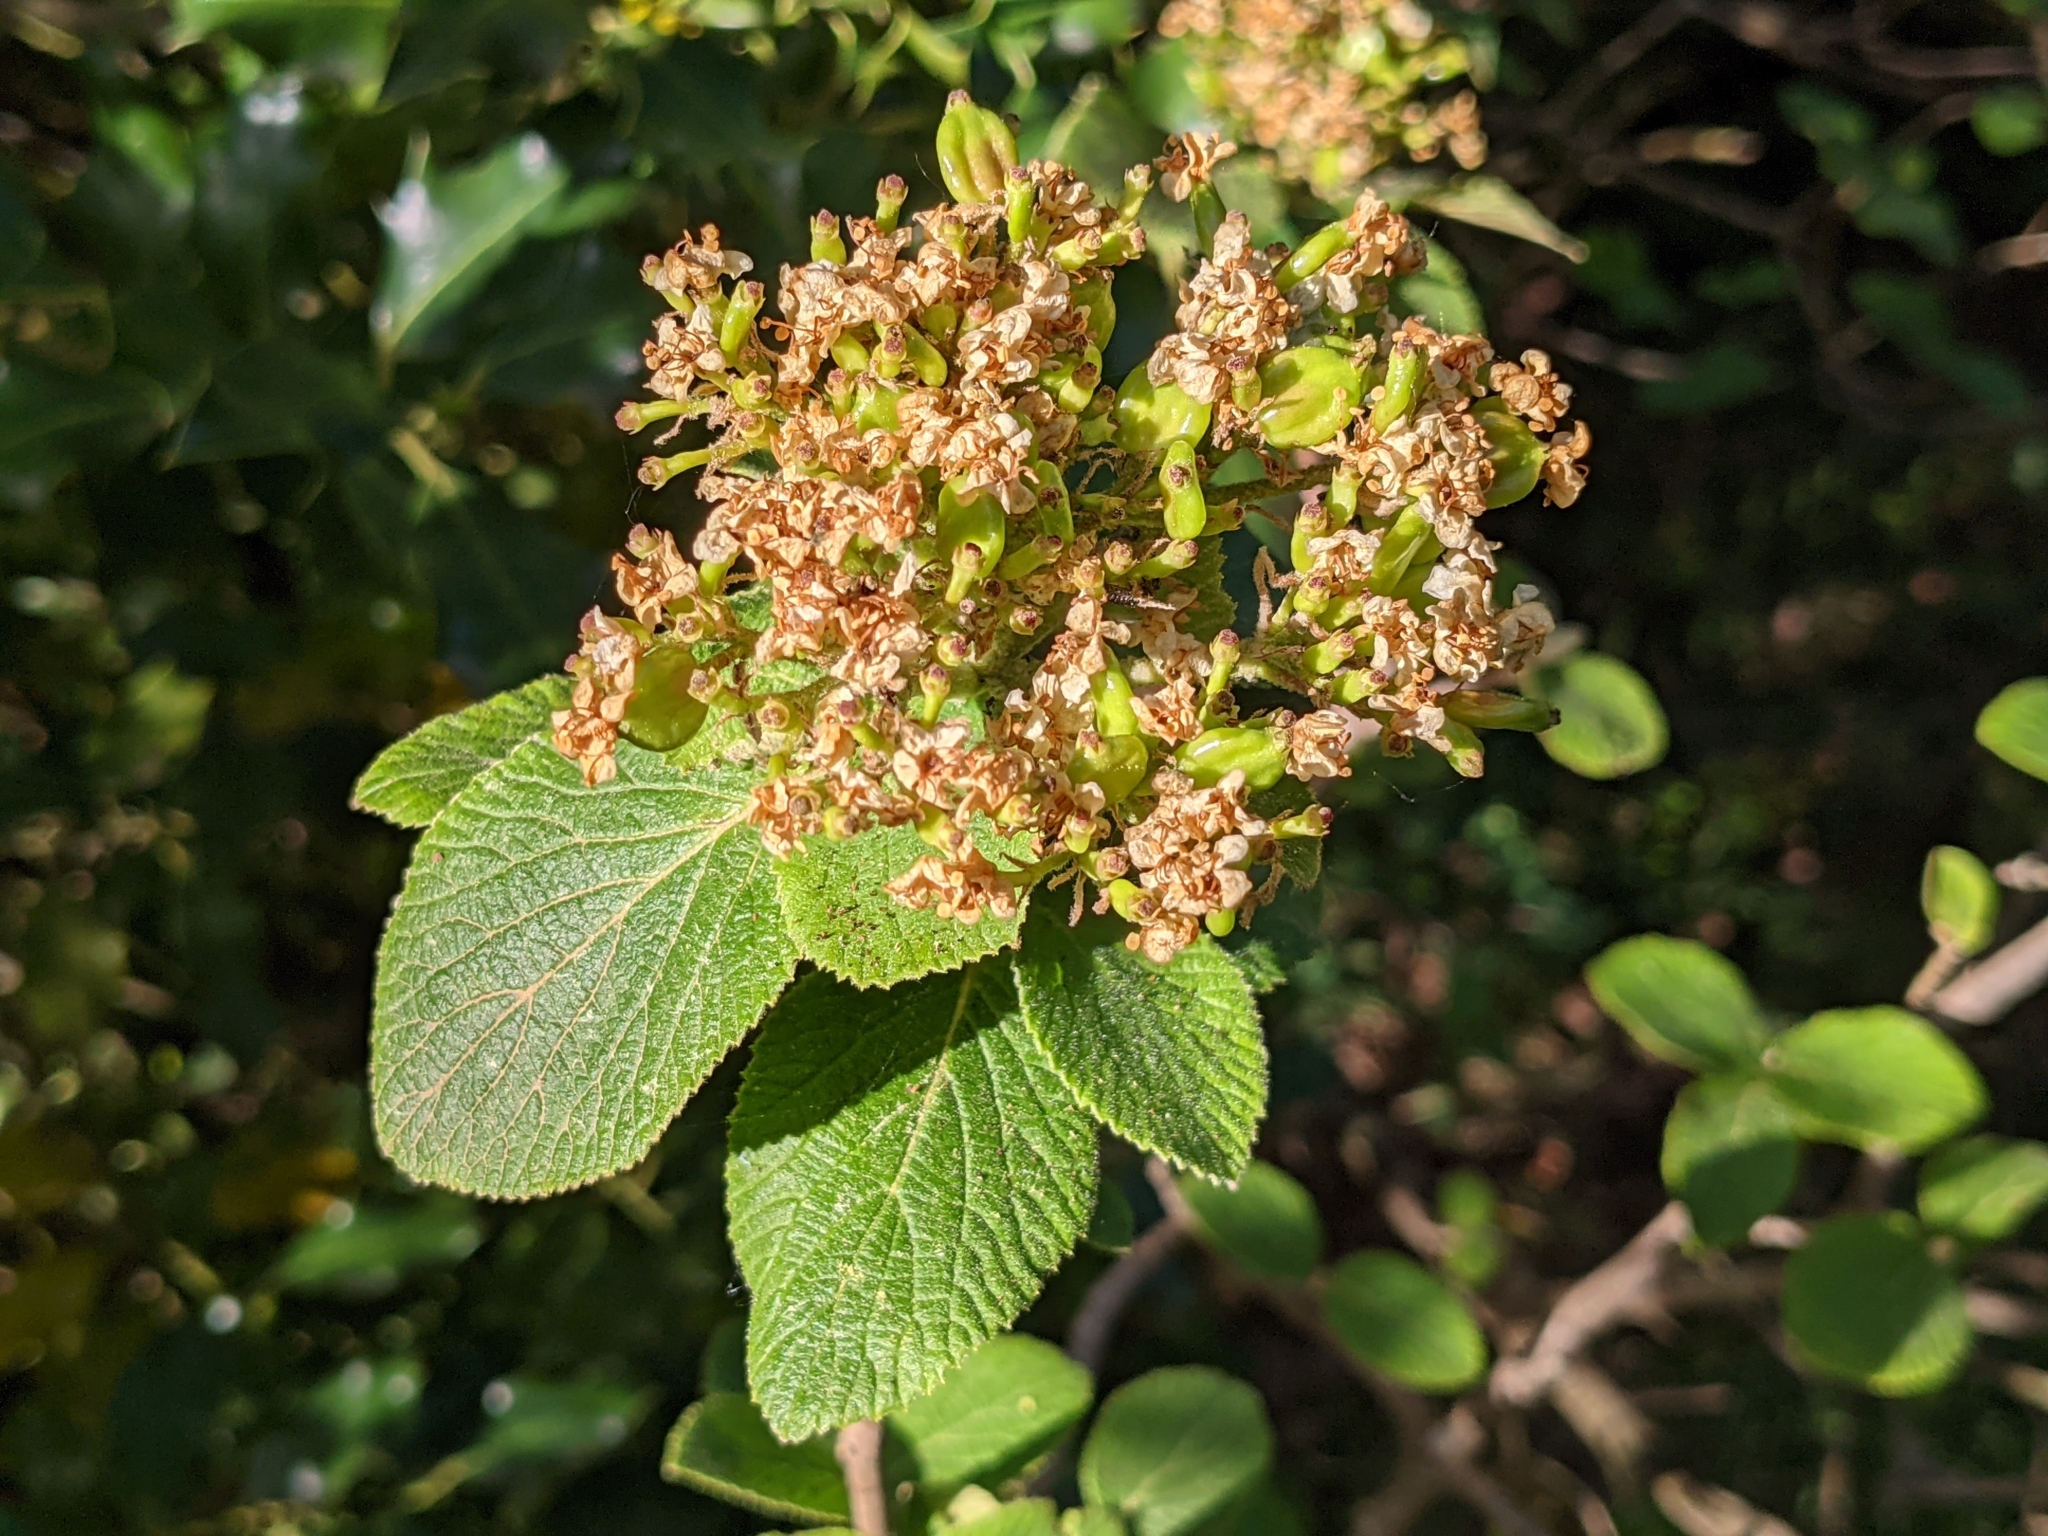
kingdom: Plantae
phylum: Tracheophyta
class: Magnoliopsida
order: Dipsacales
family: Viburnaceae
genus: Viburnum
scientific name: Viburnum lantana
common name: Wayfaring tree
